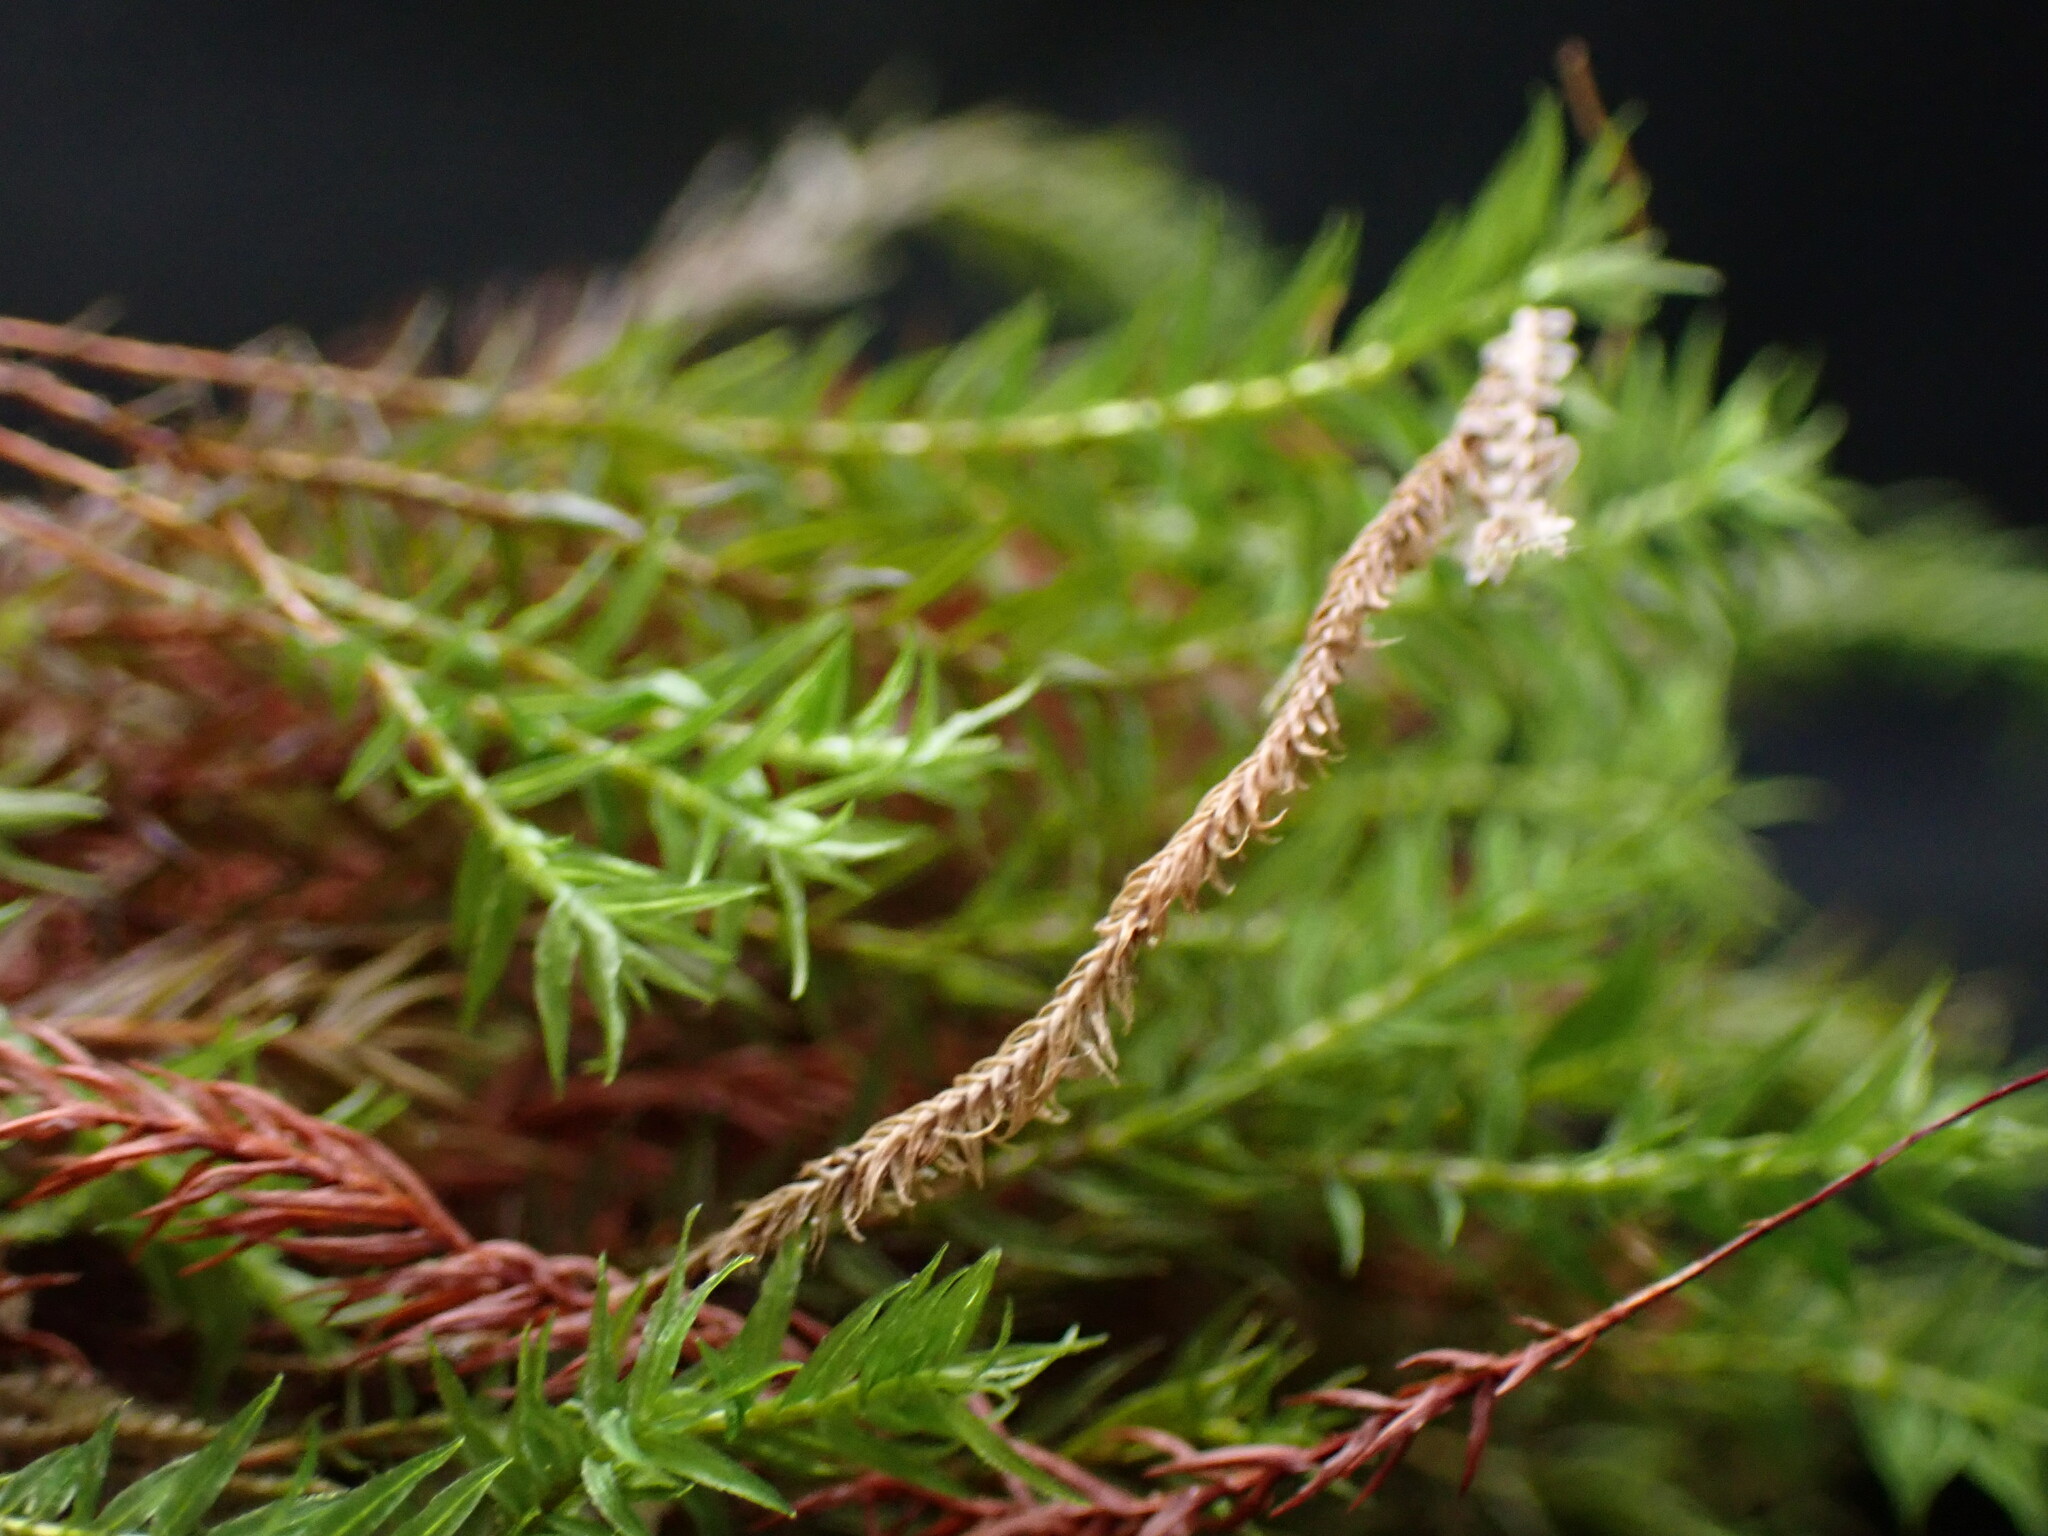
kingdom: Plantae
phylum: Bryophyta
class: Polytrichopsida
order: Polytrichales
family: Polytrichaceae
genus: Bartramiopsis
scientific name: Bartramiopsis lescurii
